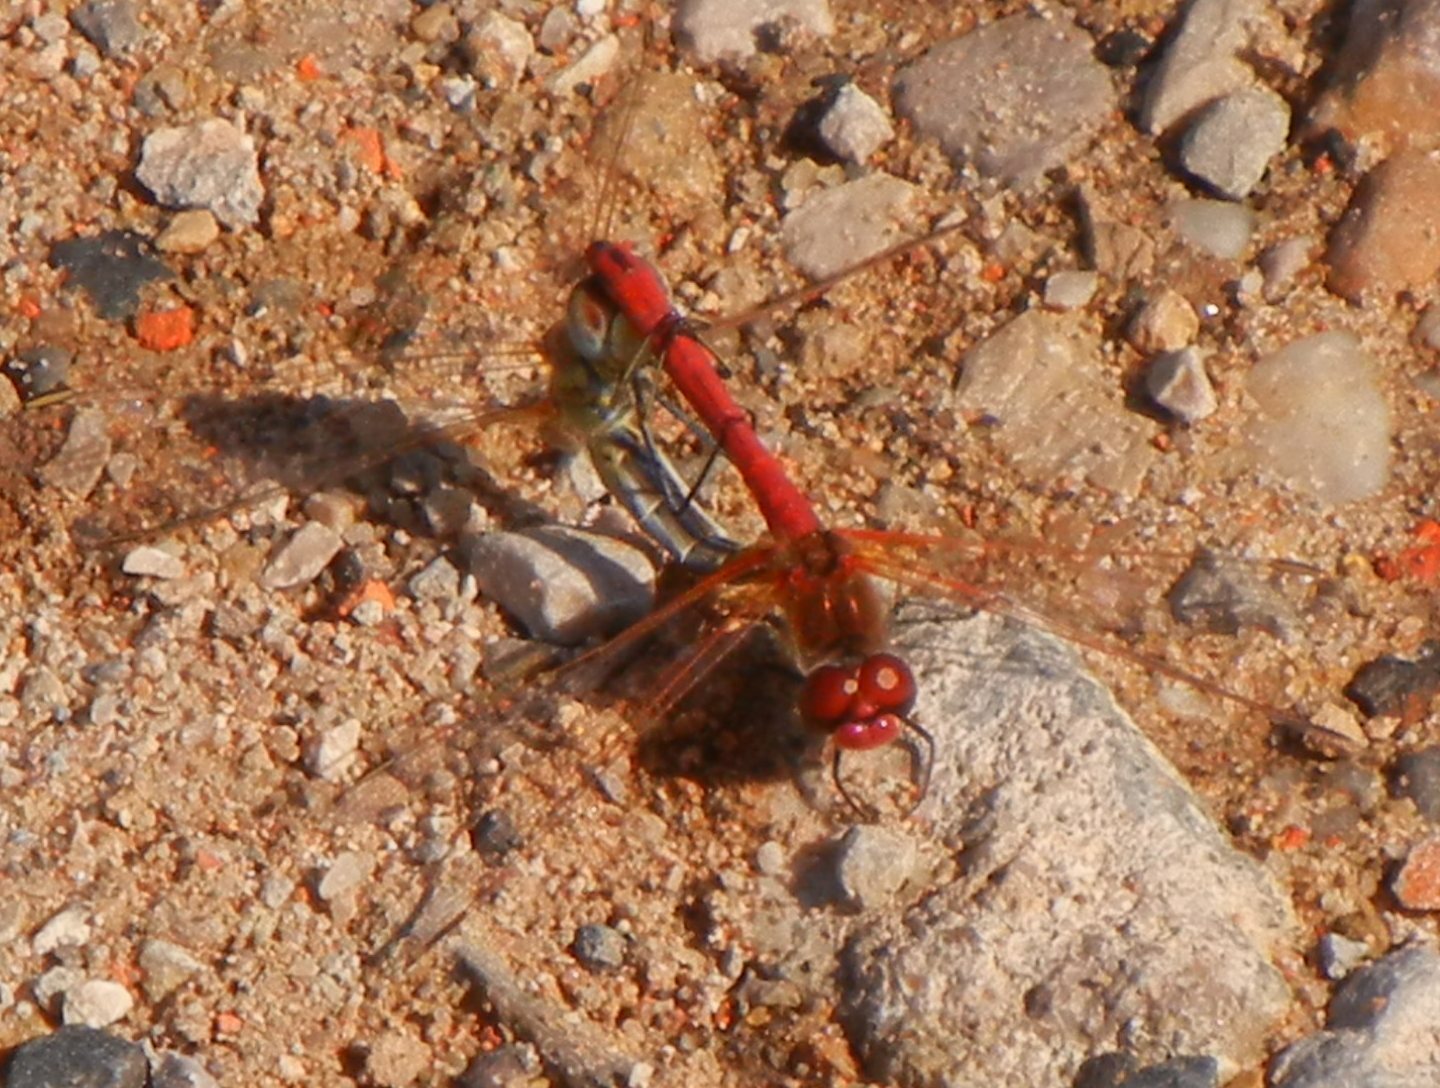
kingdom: Animalia
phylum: Arthropoda
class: Insecta
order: Odonata
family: Libellulidae
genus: Sympetrum
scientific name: Sympetrum fonscolombii
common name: Red-veined darter
